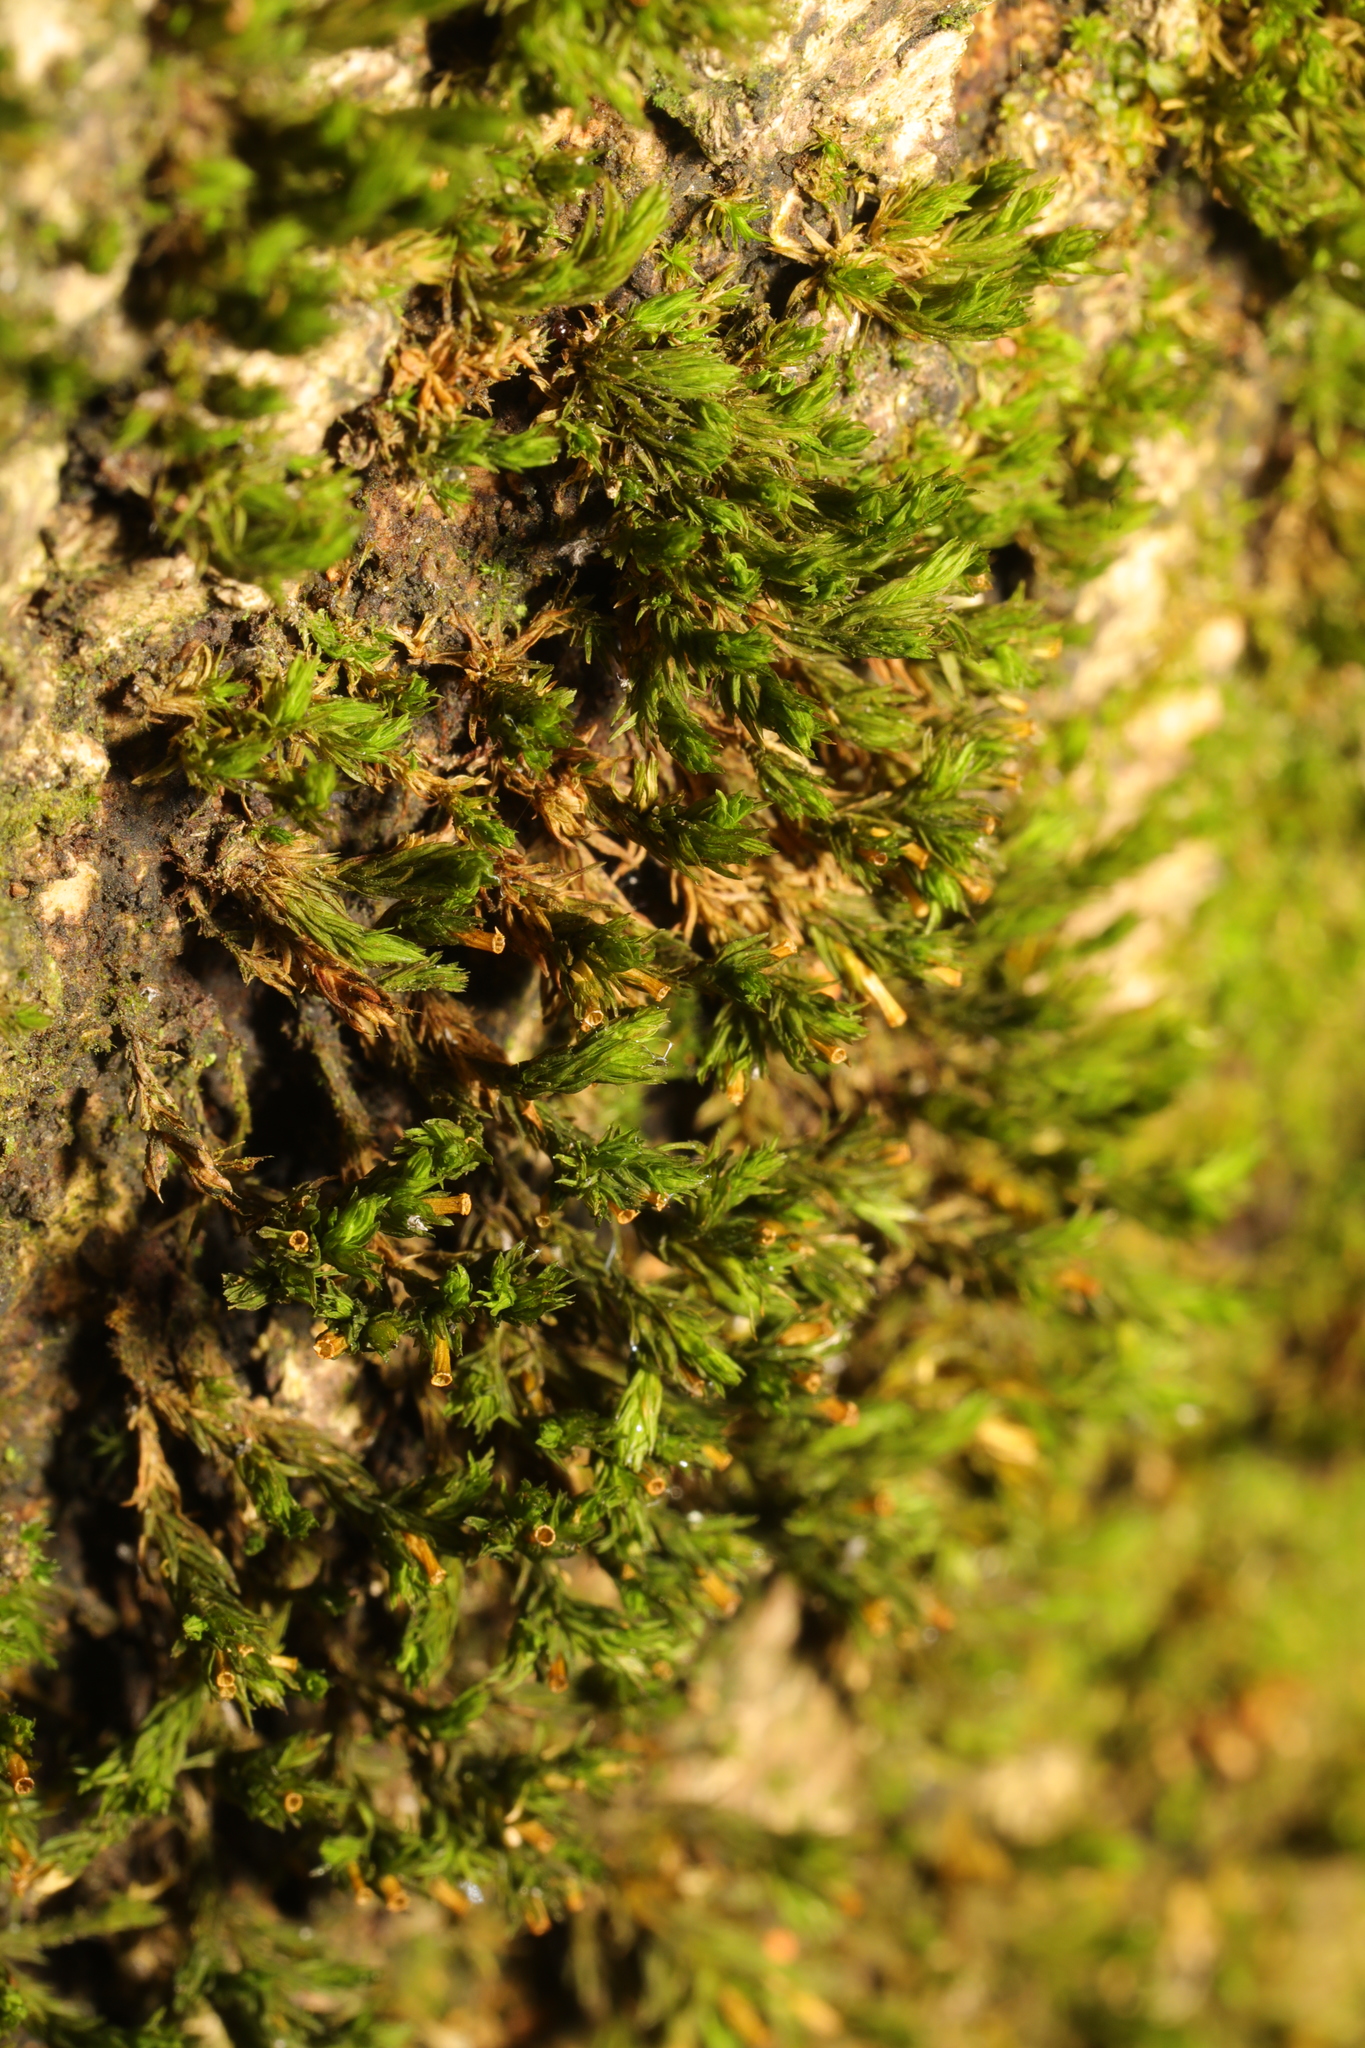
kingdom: Plantae
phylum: Bryophyta
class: Bryopsida
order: Orthotrichales
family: Orthotrichaceae
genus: Lewinskya
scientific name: Lewinskya affinis
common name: Wood bristle-moss
